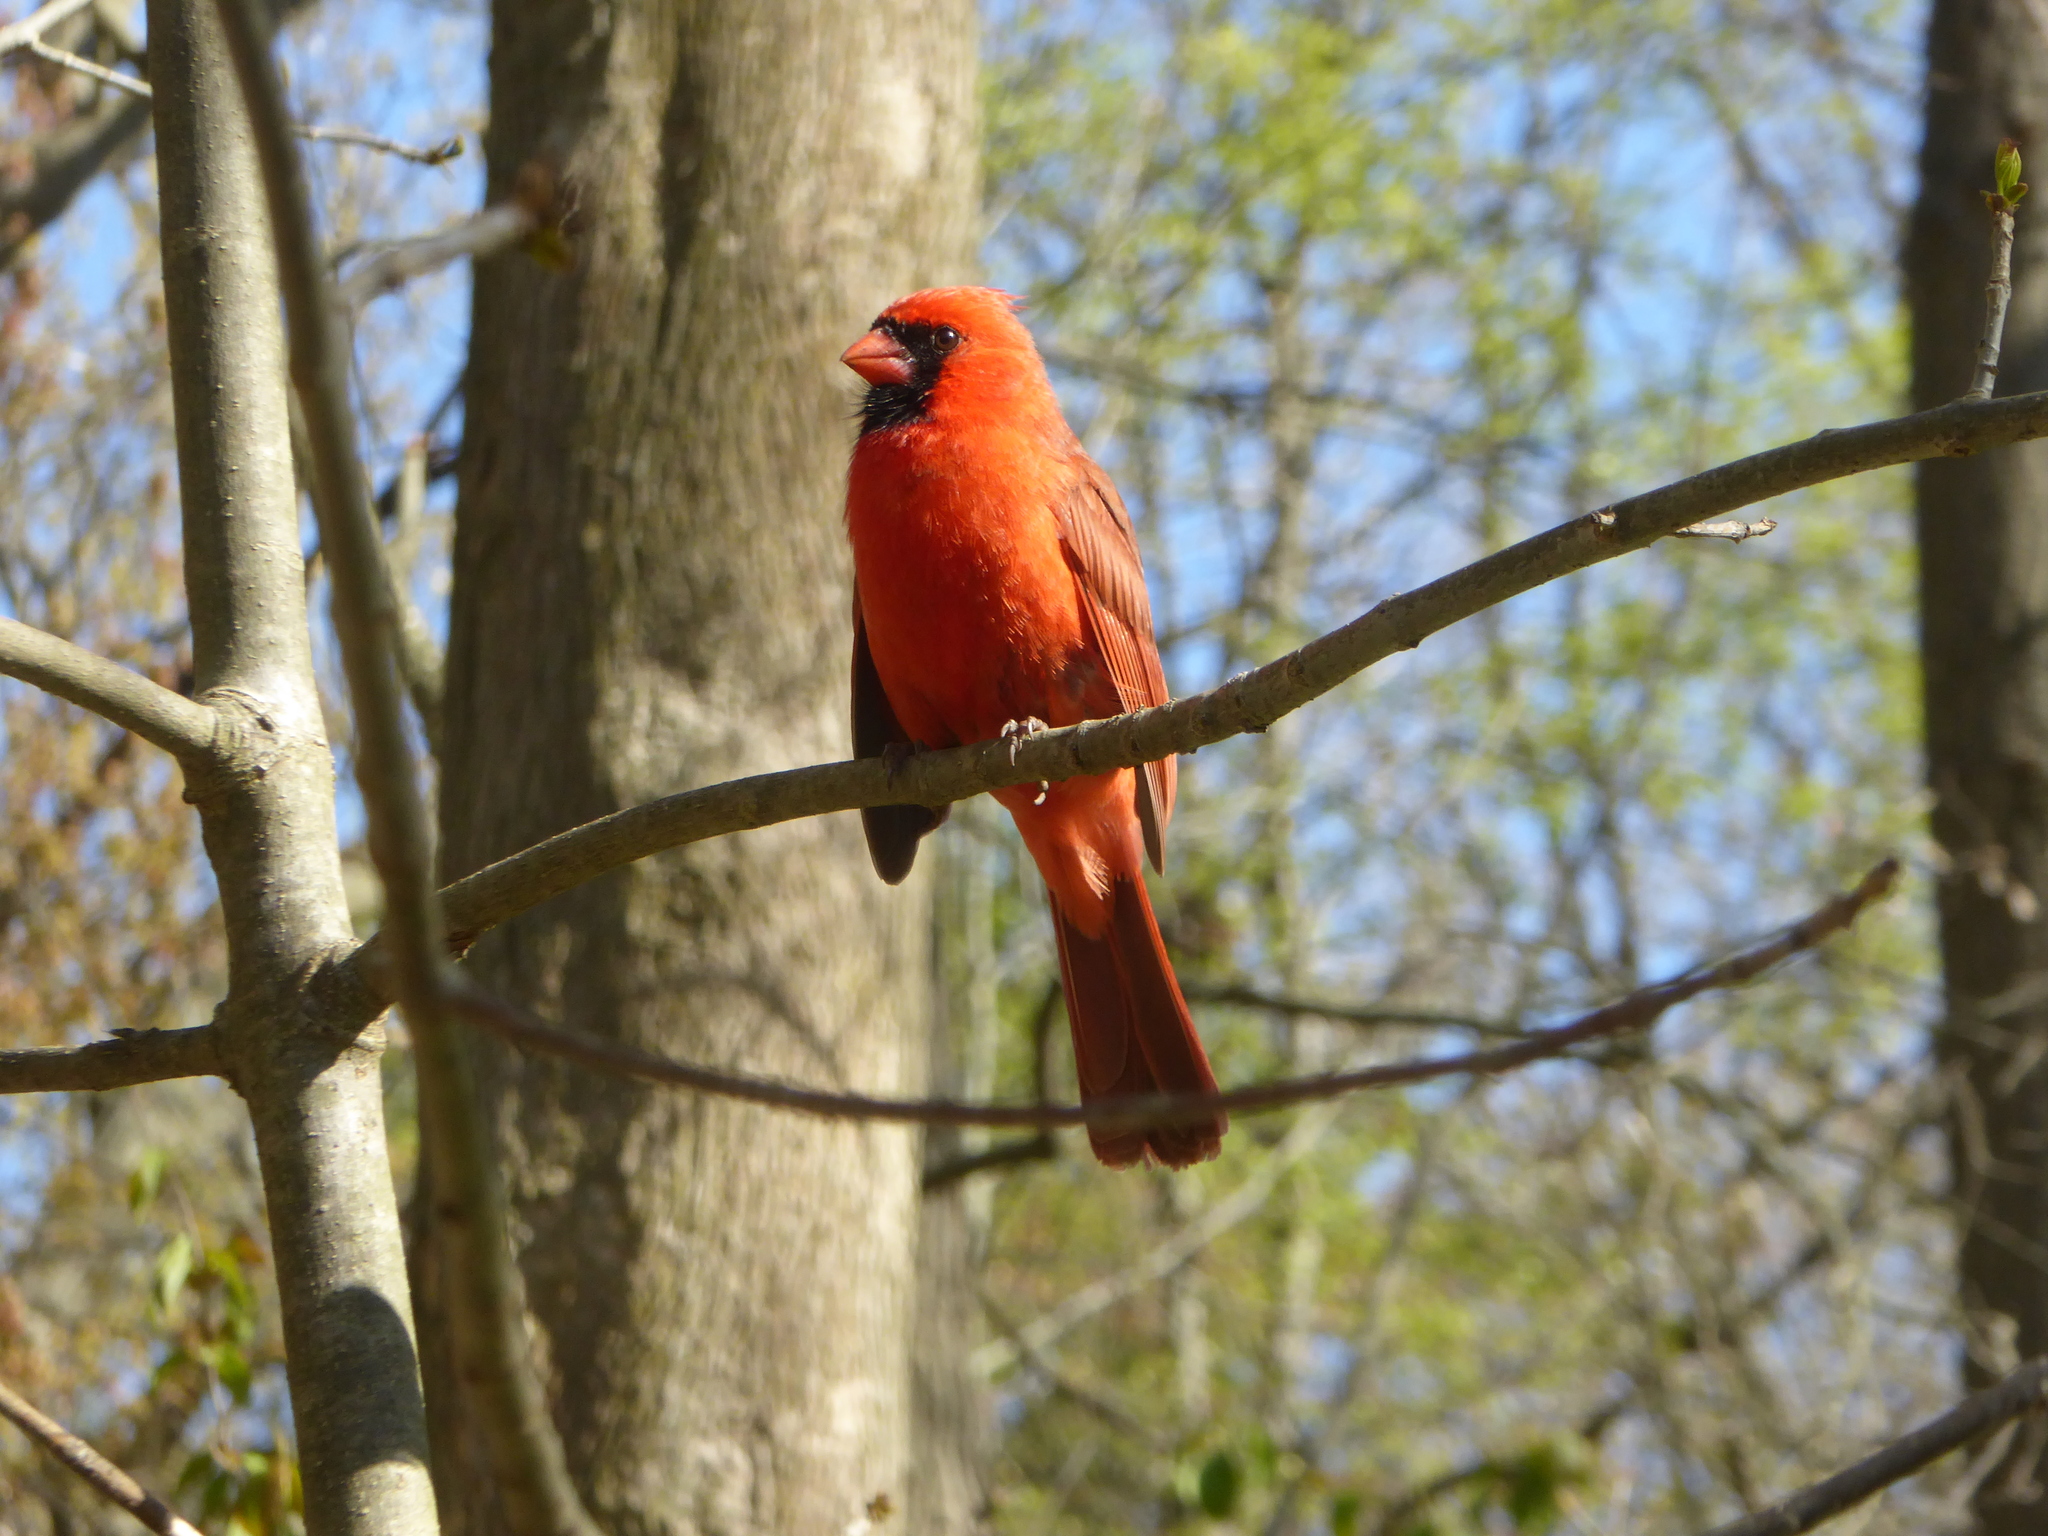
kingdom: Animalia
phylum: Chordata
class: Aves
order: Passeriformes
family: Cardinalidae
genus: Cardinalis
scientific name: Cardinalis cardinalis
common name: Northern cardinal
